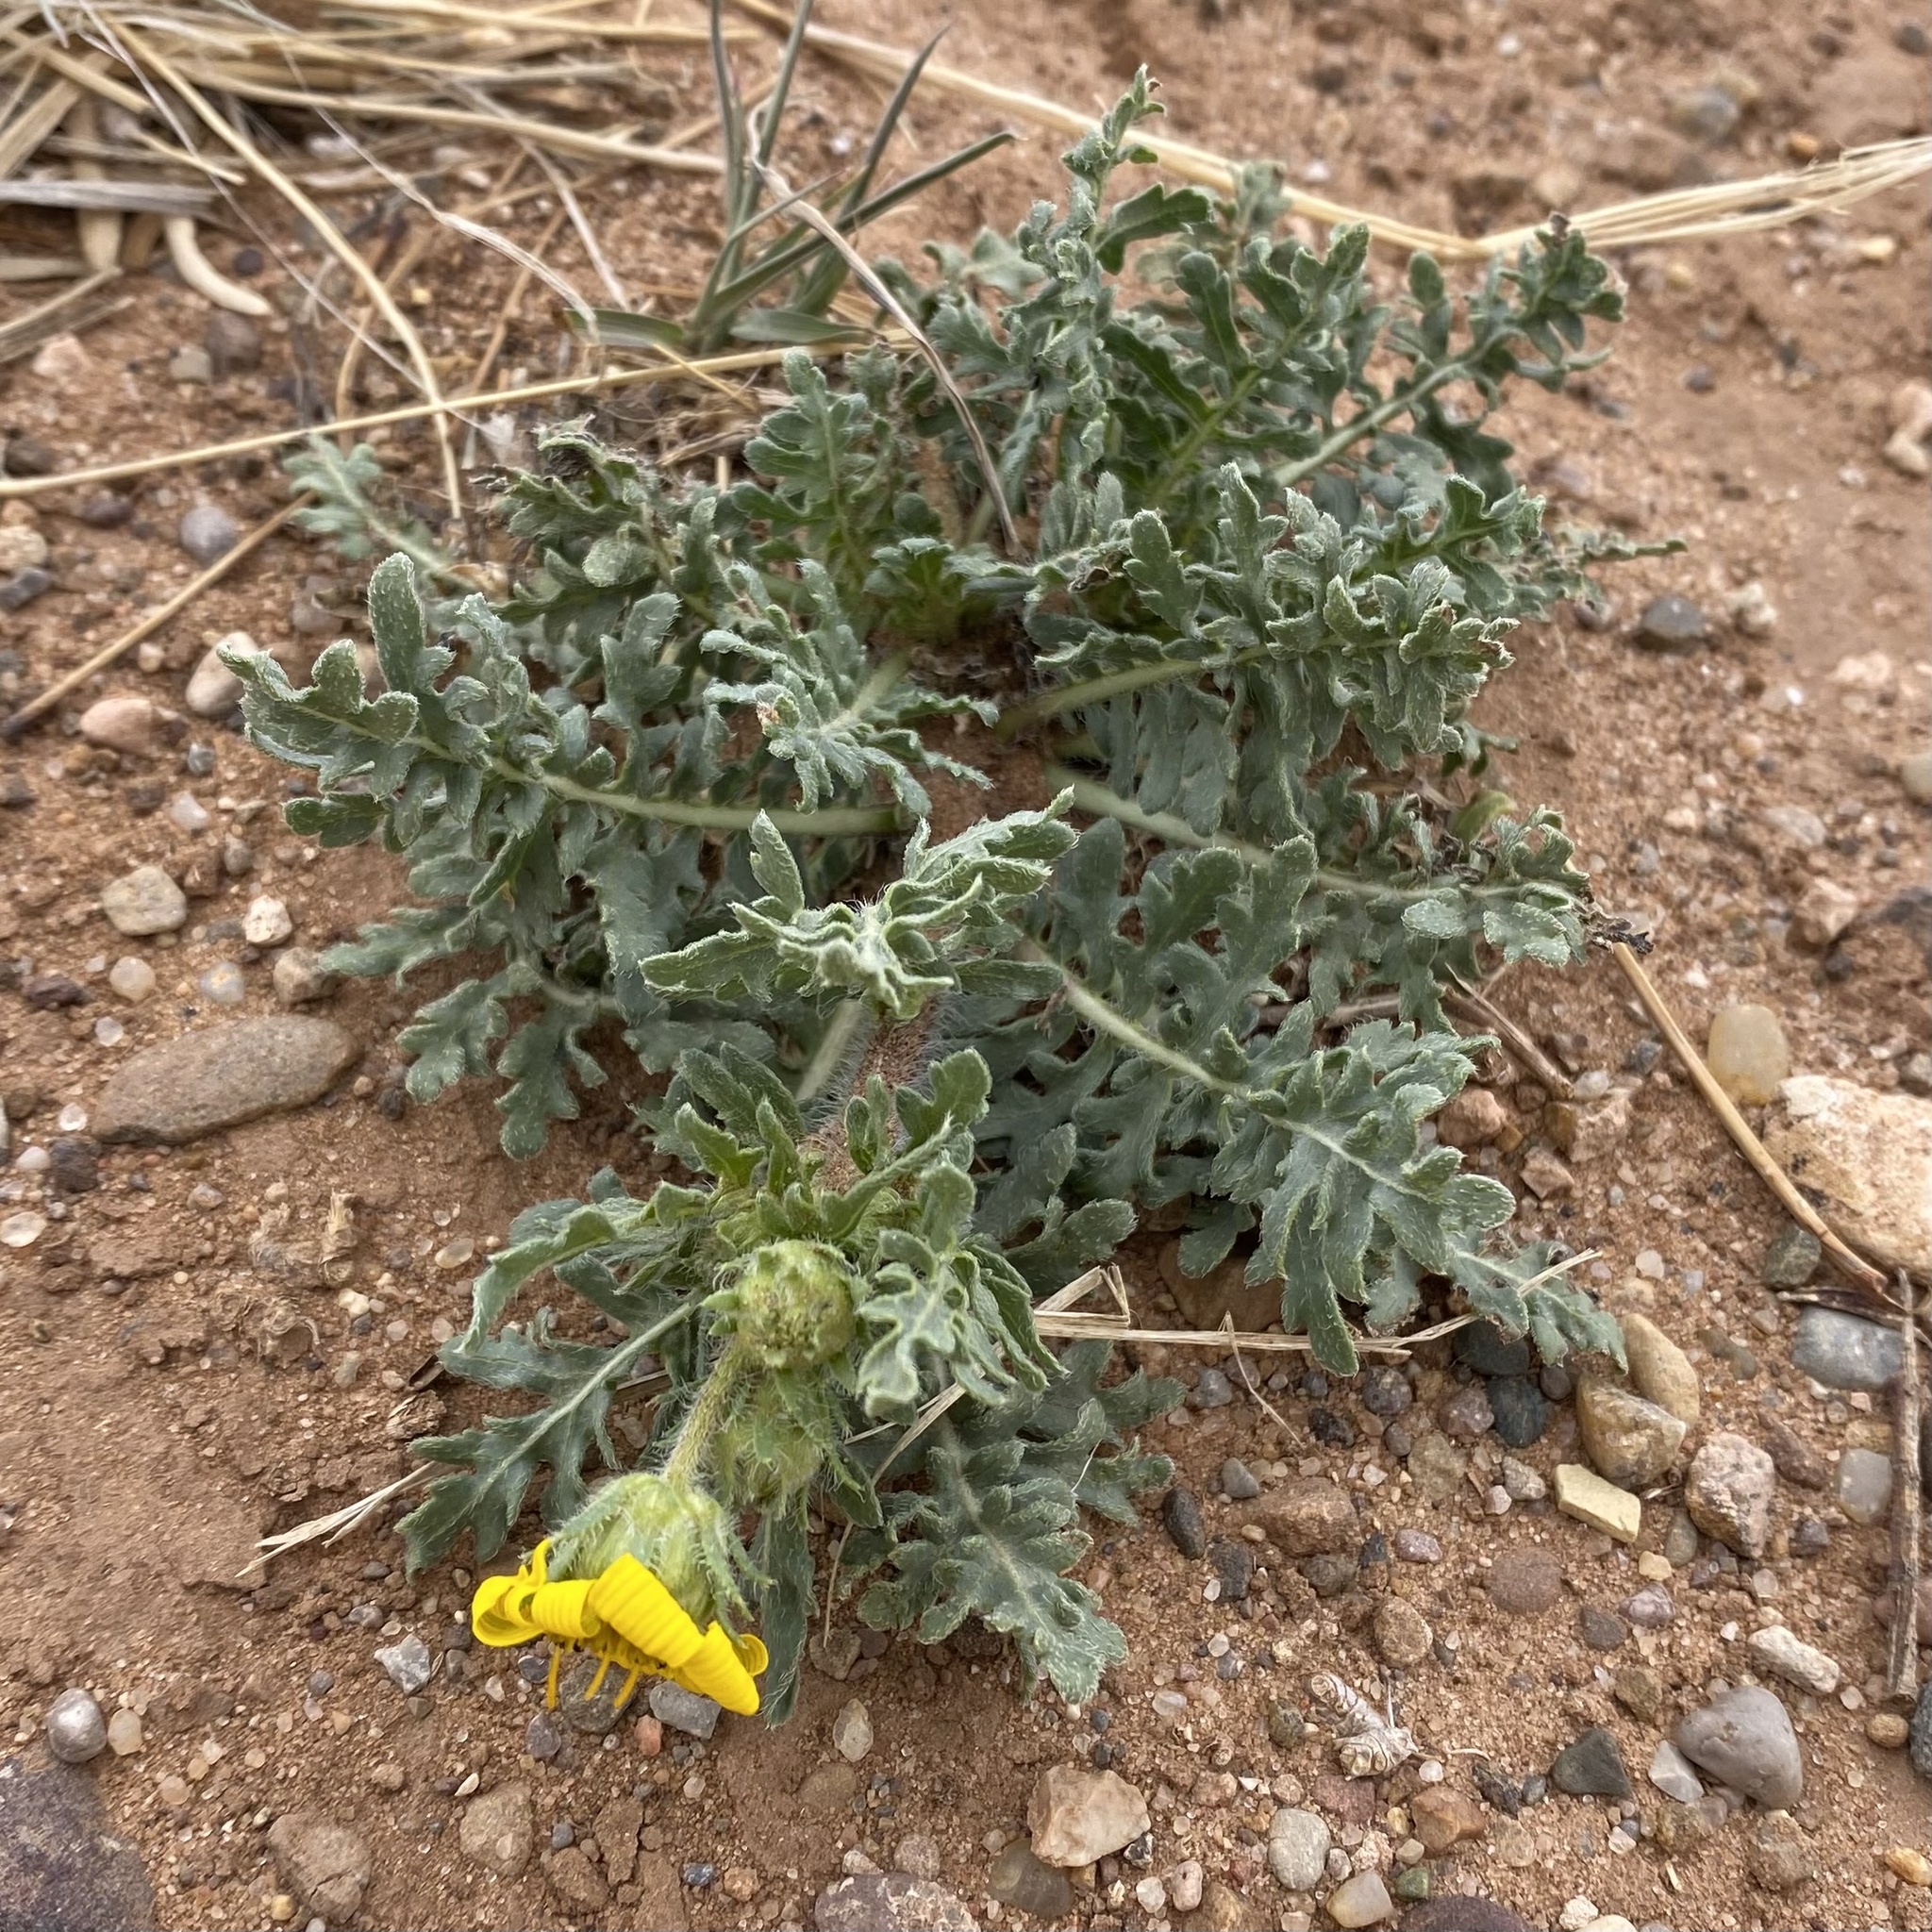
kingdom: Plantae
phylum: Tracheophyta
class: Magnoliopsida
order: Asterales
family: Asteraceae
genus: Engelmannia
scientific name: Engelmannia peristenia
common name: Engelmann's daisy
